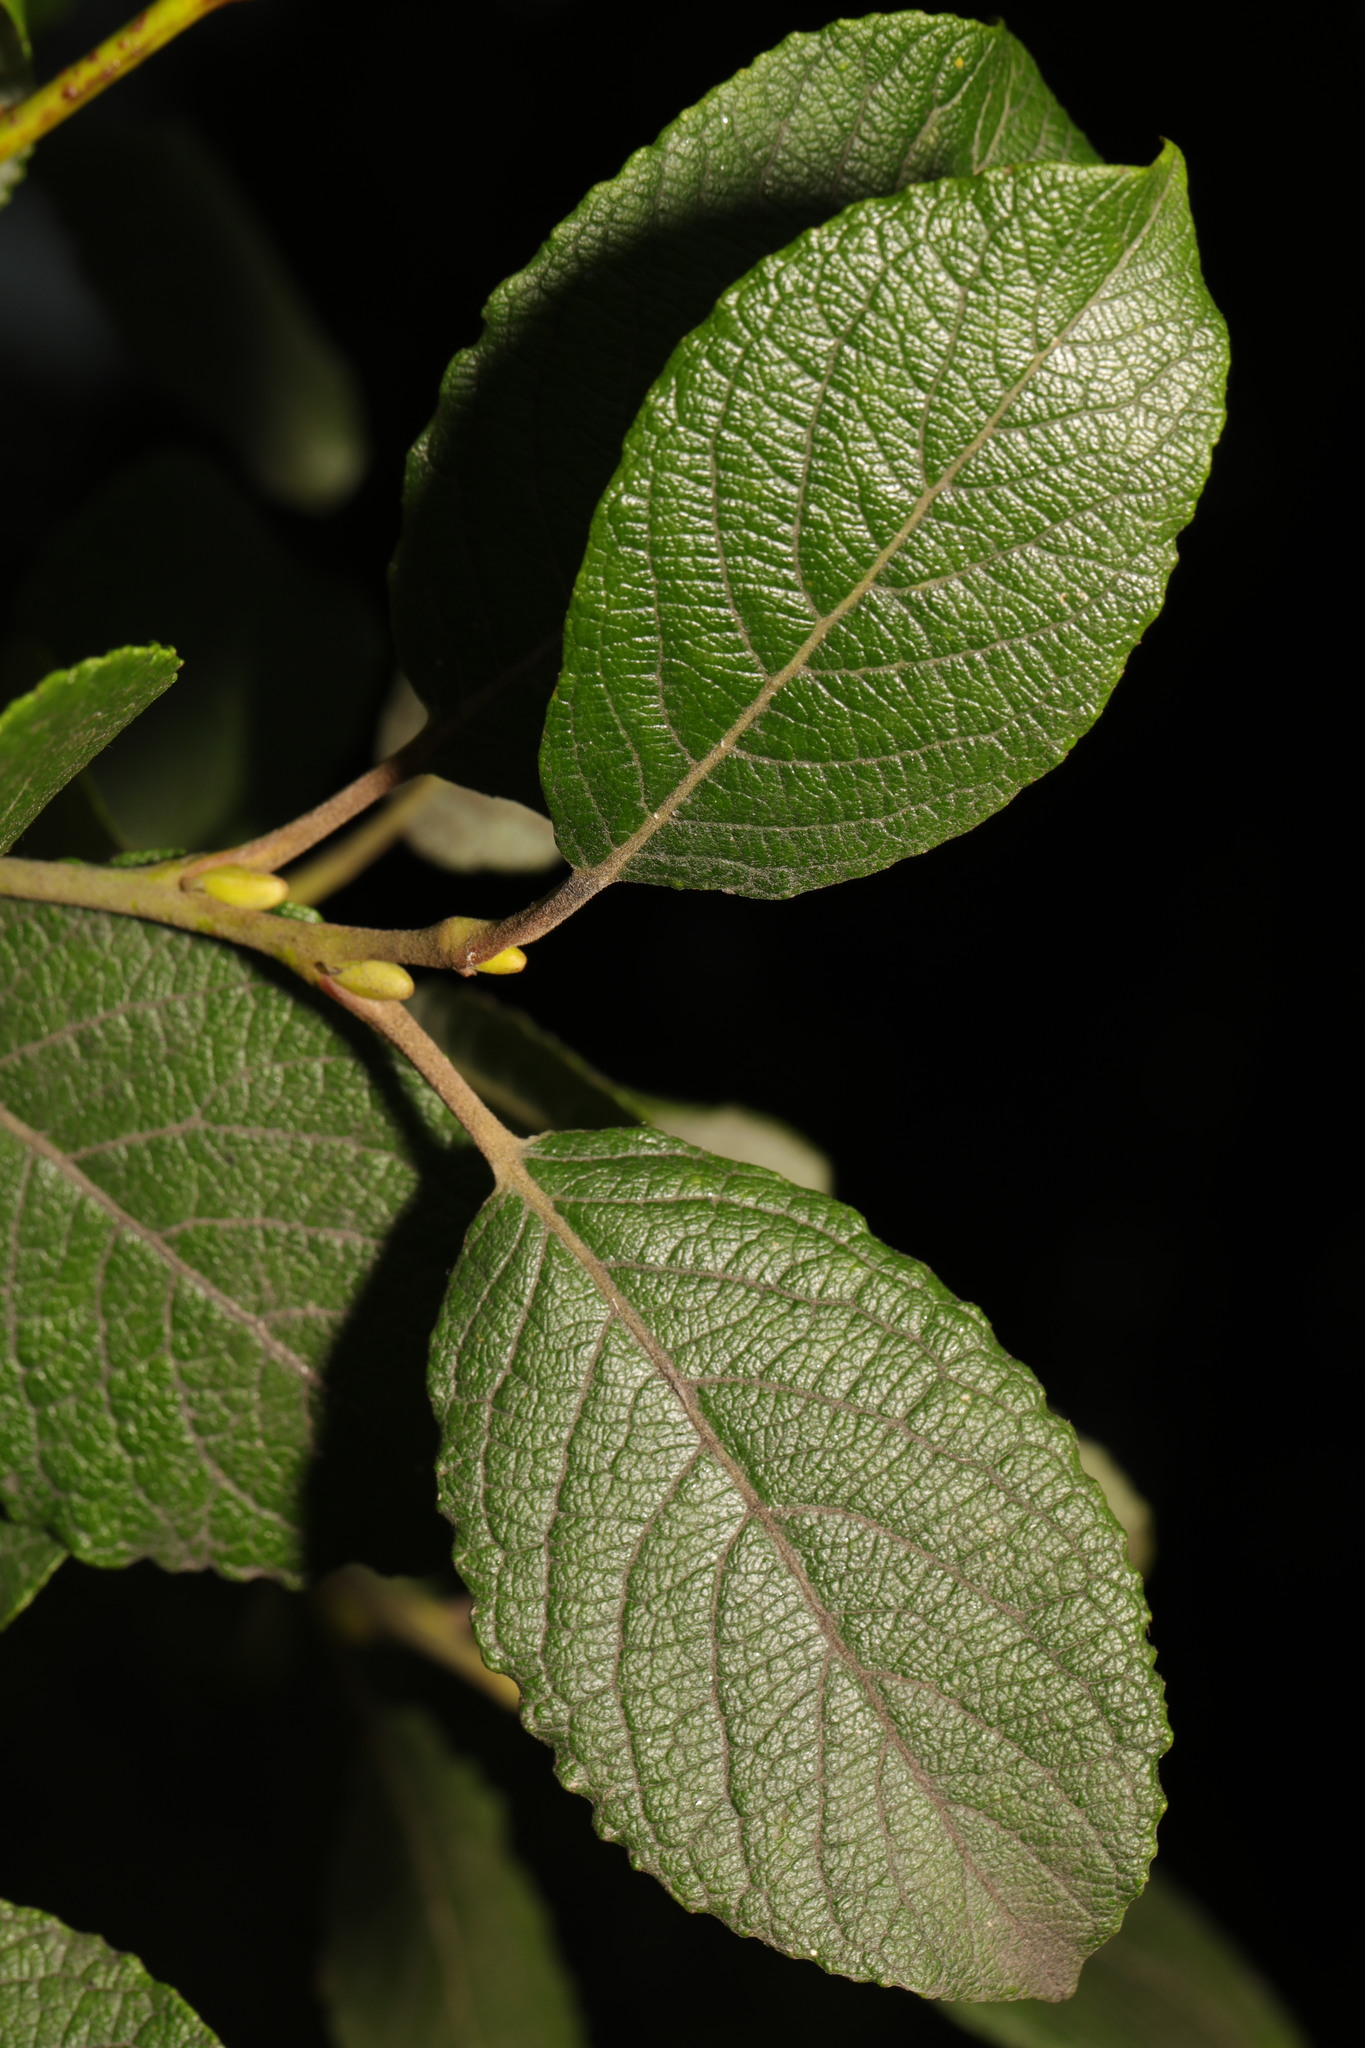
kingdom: Plantae
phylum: Tracheophyta
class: Magnoliopsida
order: Malpighiales
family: Salicaceae
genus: Salix
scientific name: Salix caprea
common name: Goat willow
